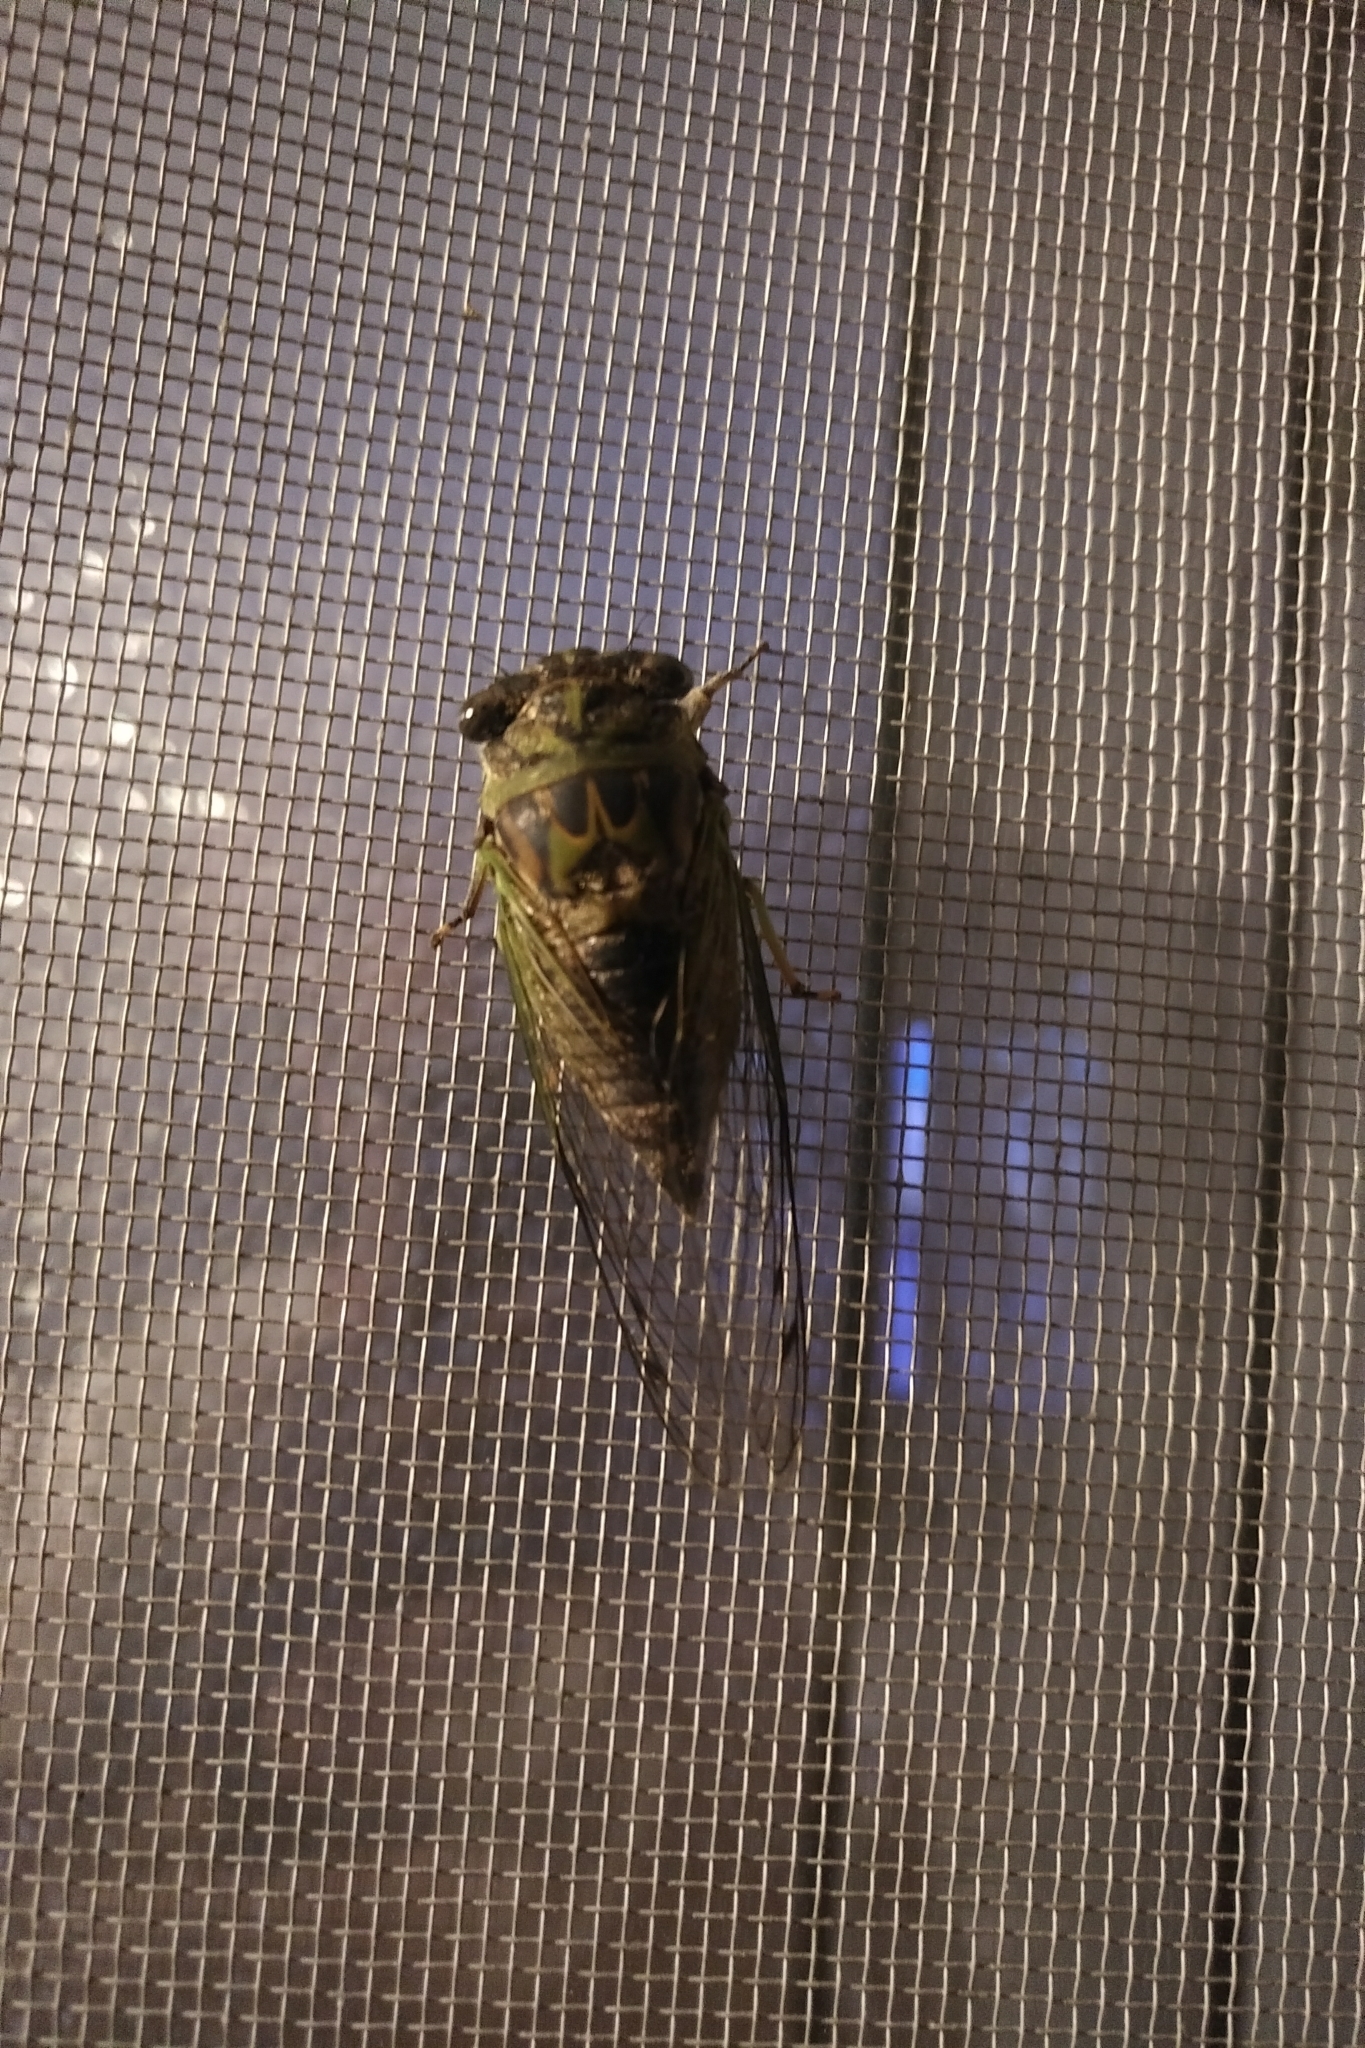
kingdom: Animalia
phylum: Arthropoda
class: Insecta
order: Hemiptera
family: Cicadidae
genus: Neotibicen
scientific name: Neotibicen
